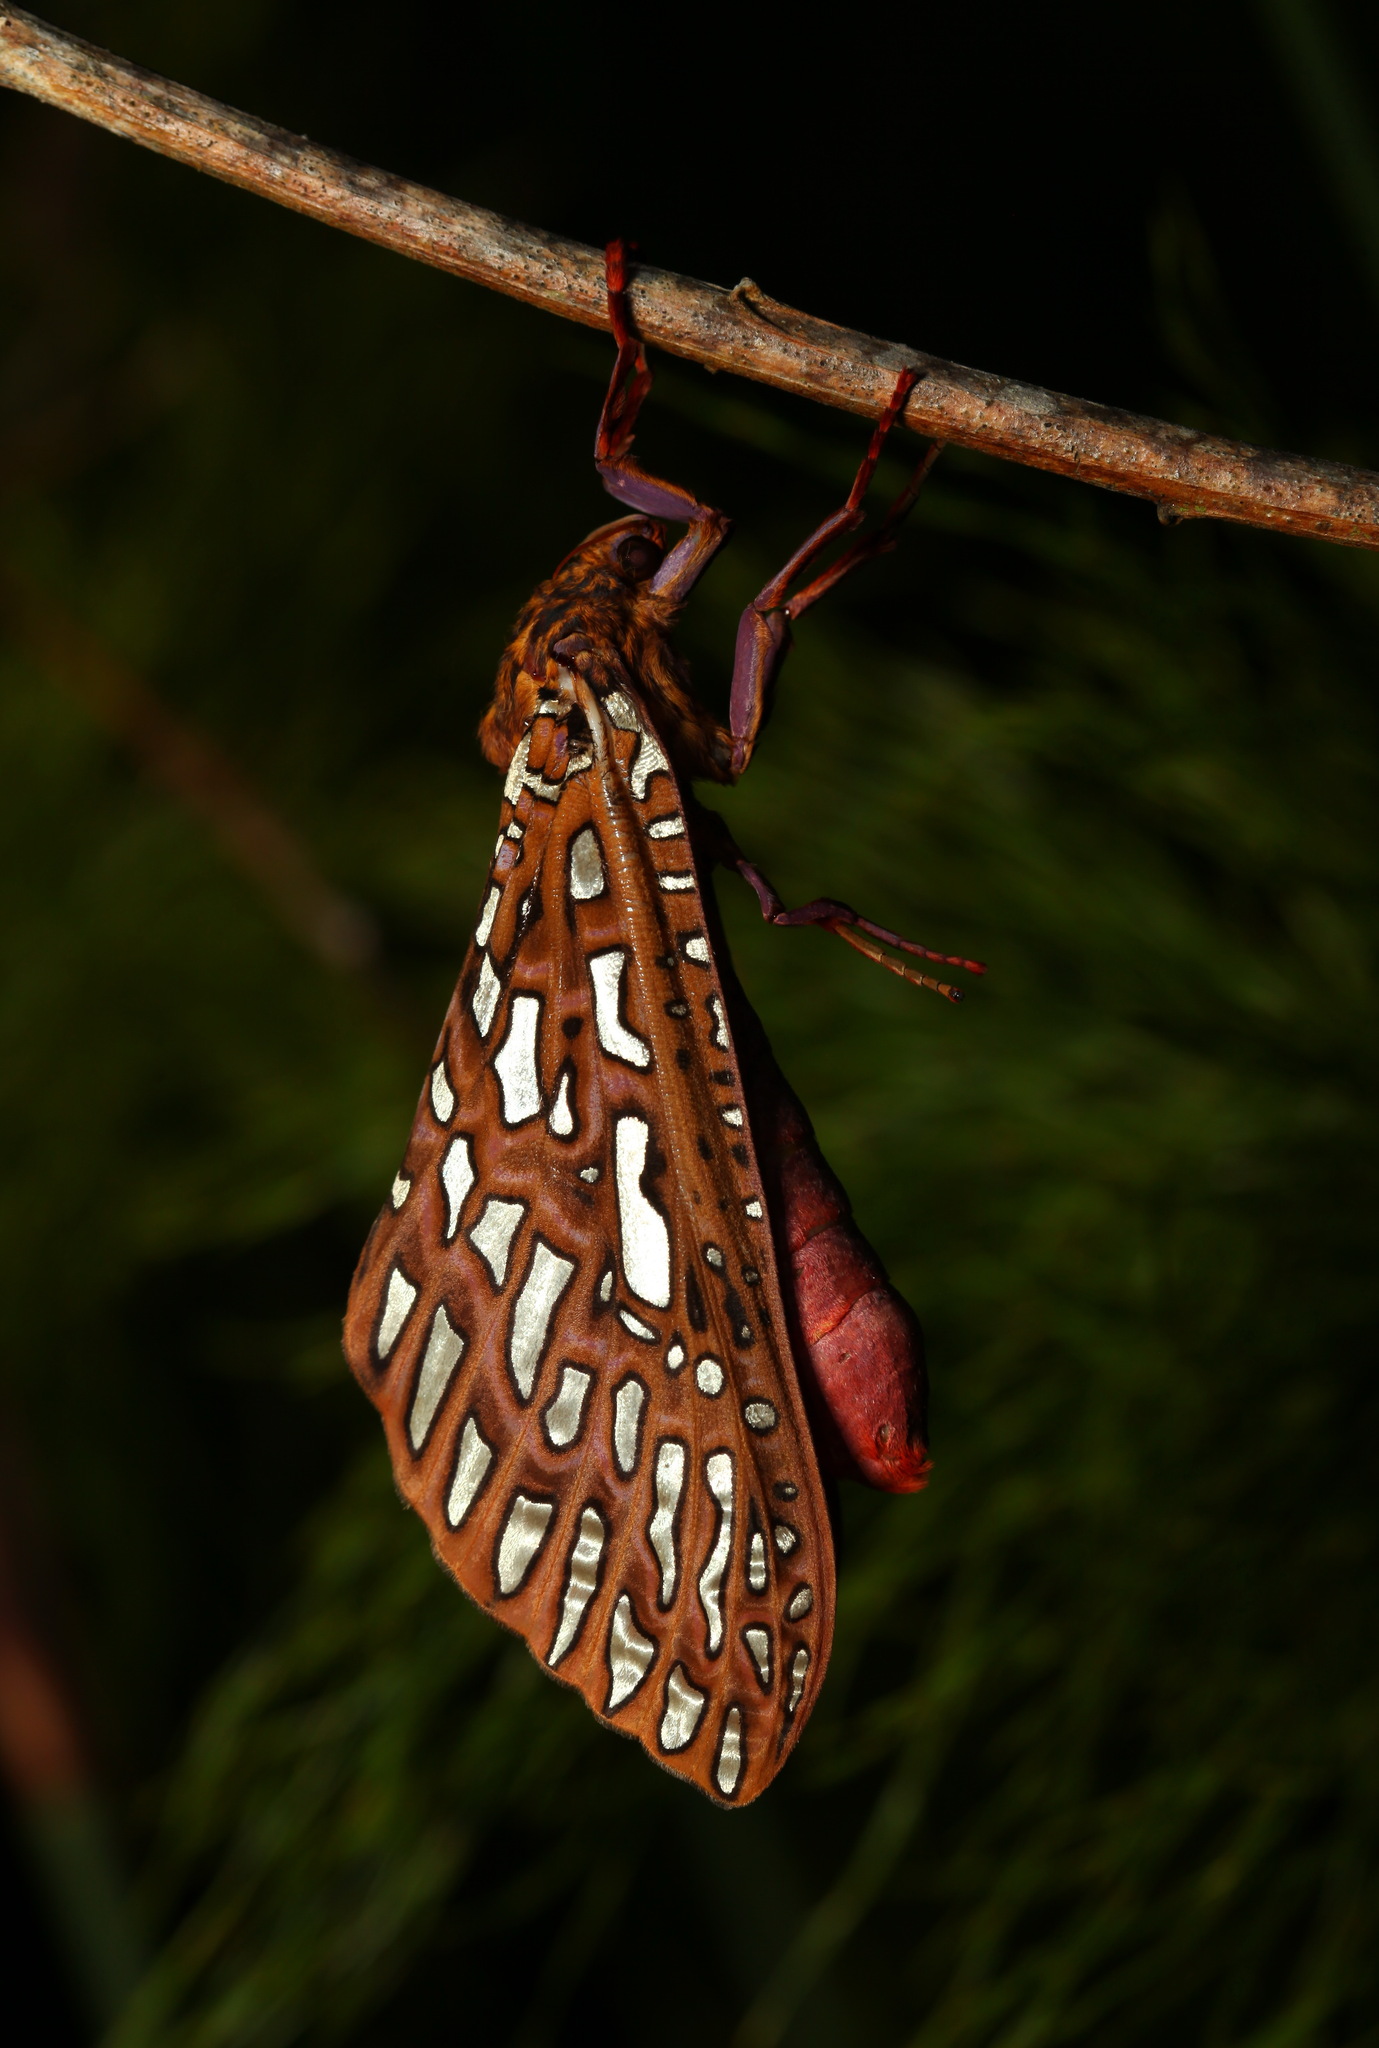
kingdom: Animalia
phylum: Arthropoda
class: Insecta
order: Lepidoptera
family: Hepialidae
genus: Leto
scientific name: Leto venus
